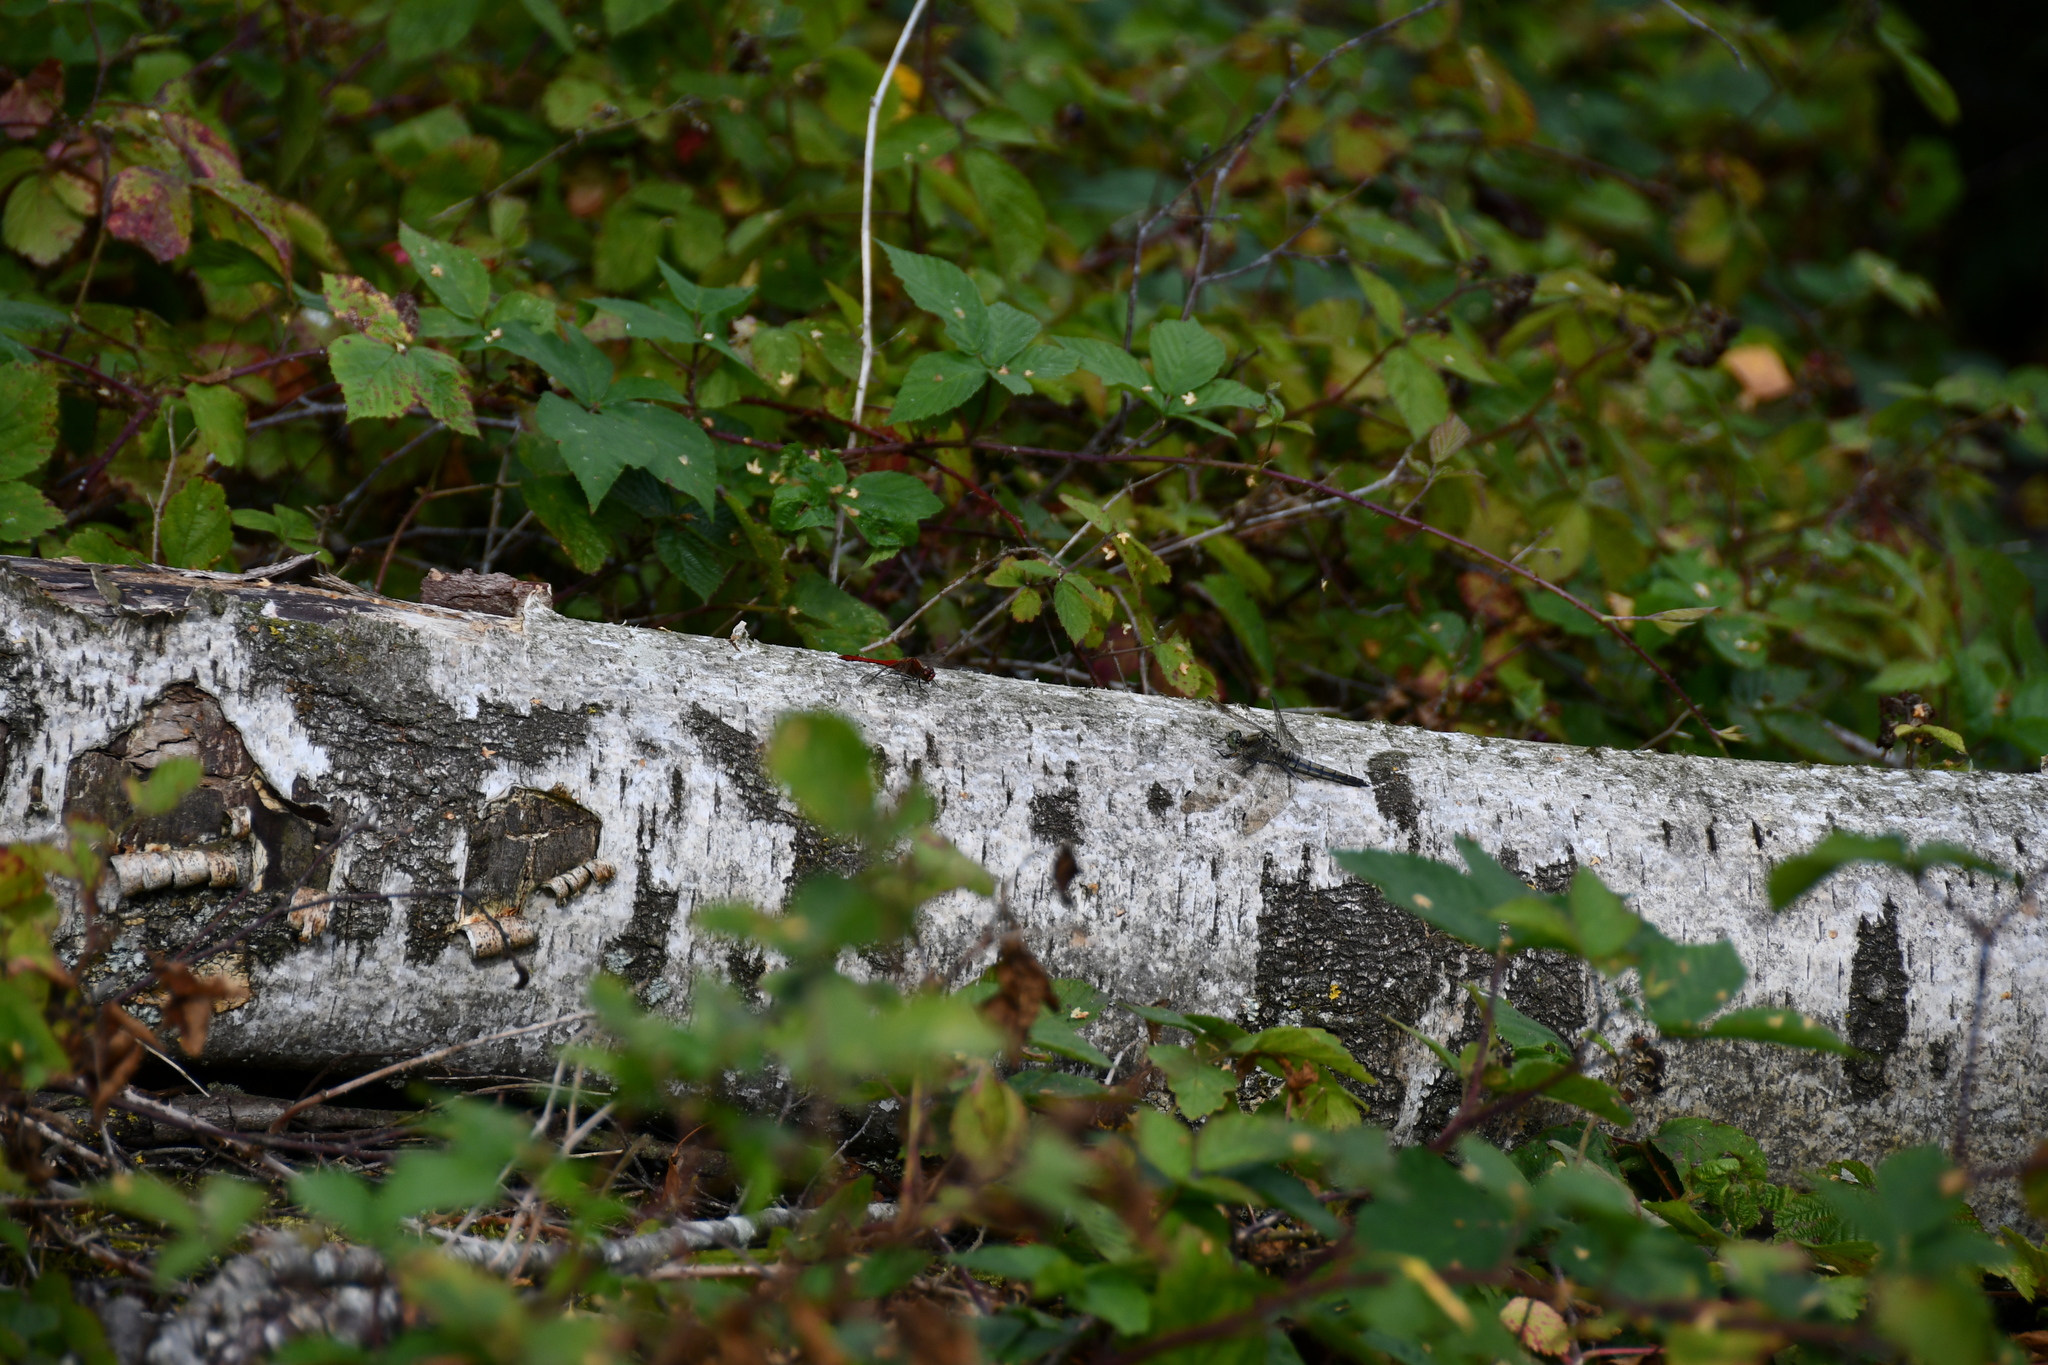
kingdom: Animalia
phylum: Arthropoda
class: Insecta
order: Odonata
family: Libellulidae
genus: Sympetrum
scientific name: Sympetrum sanguineum
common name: Ruddy darter
